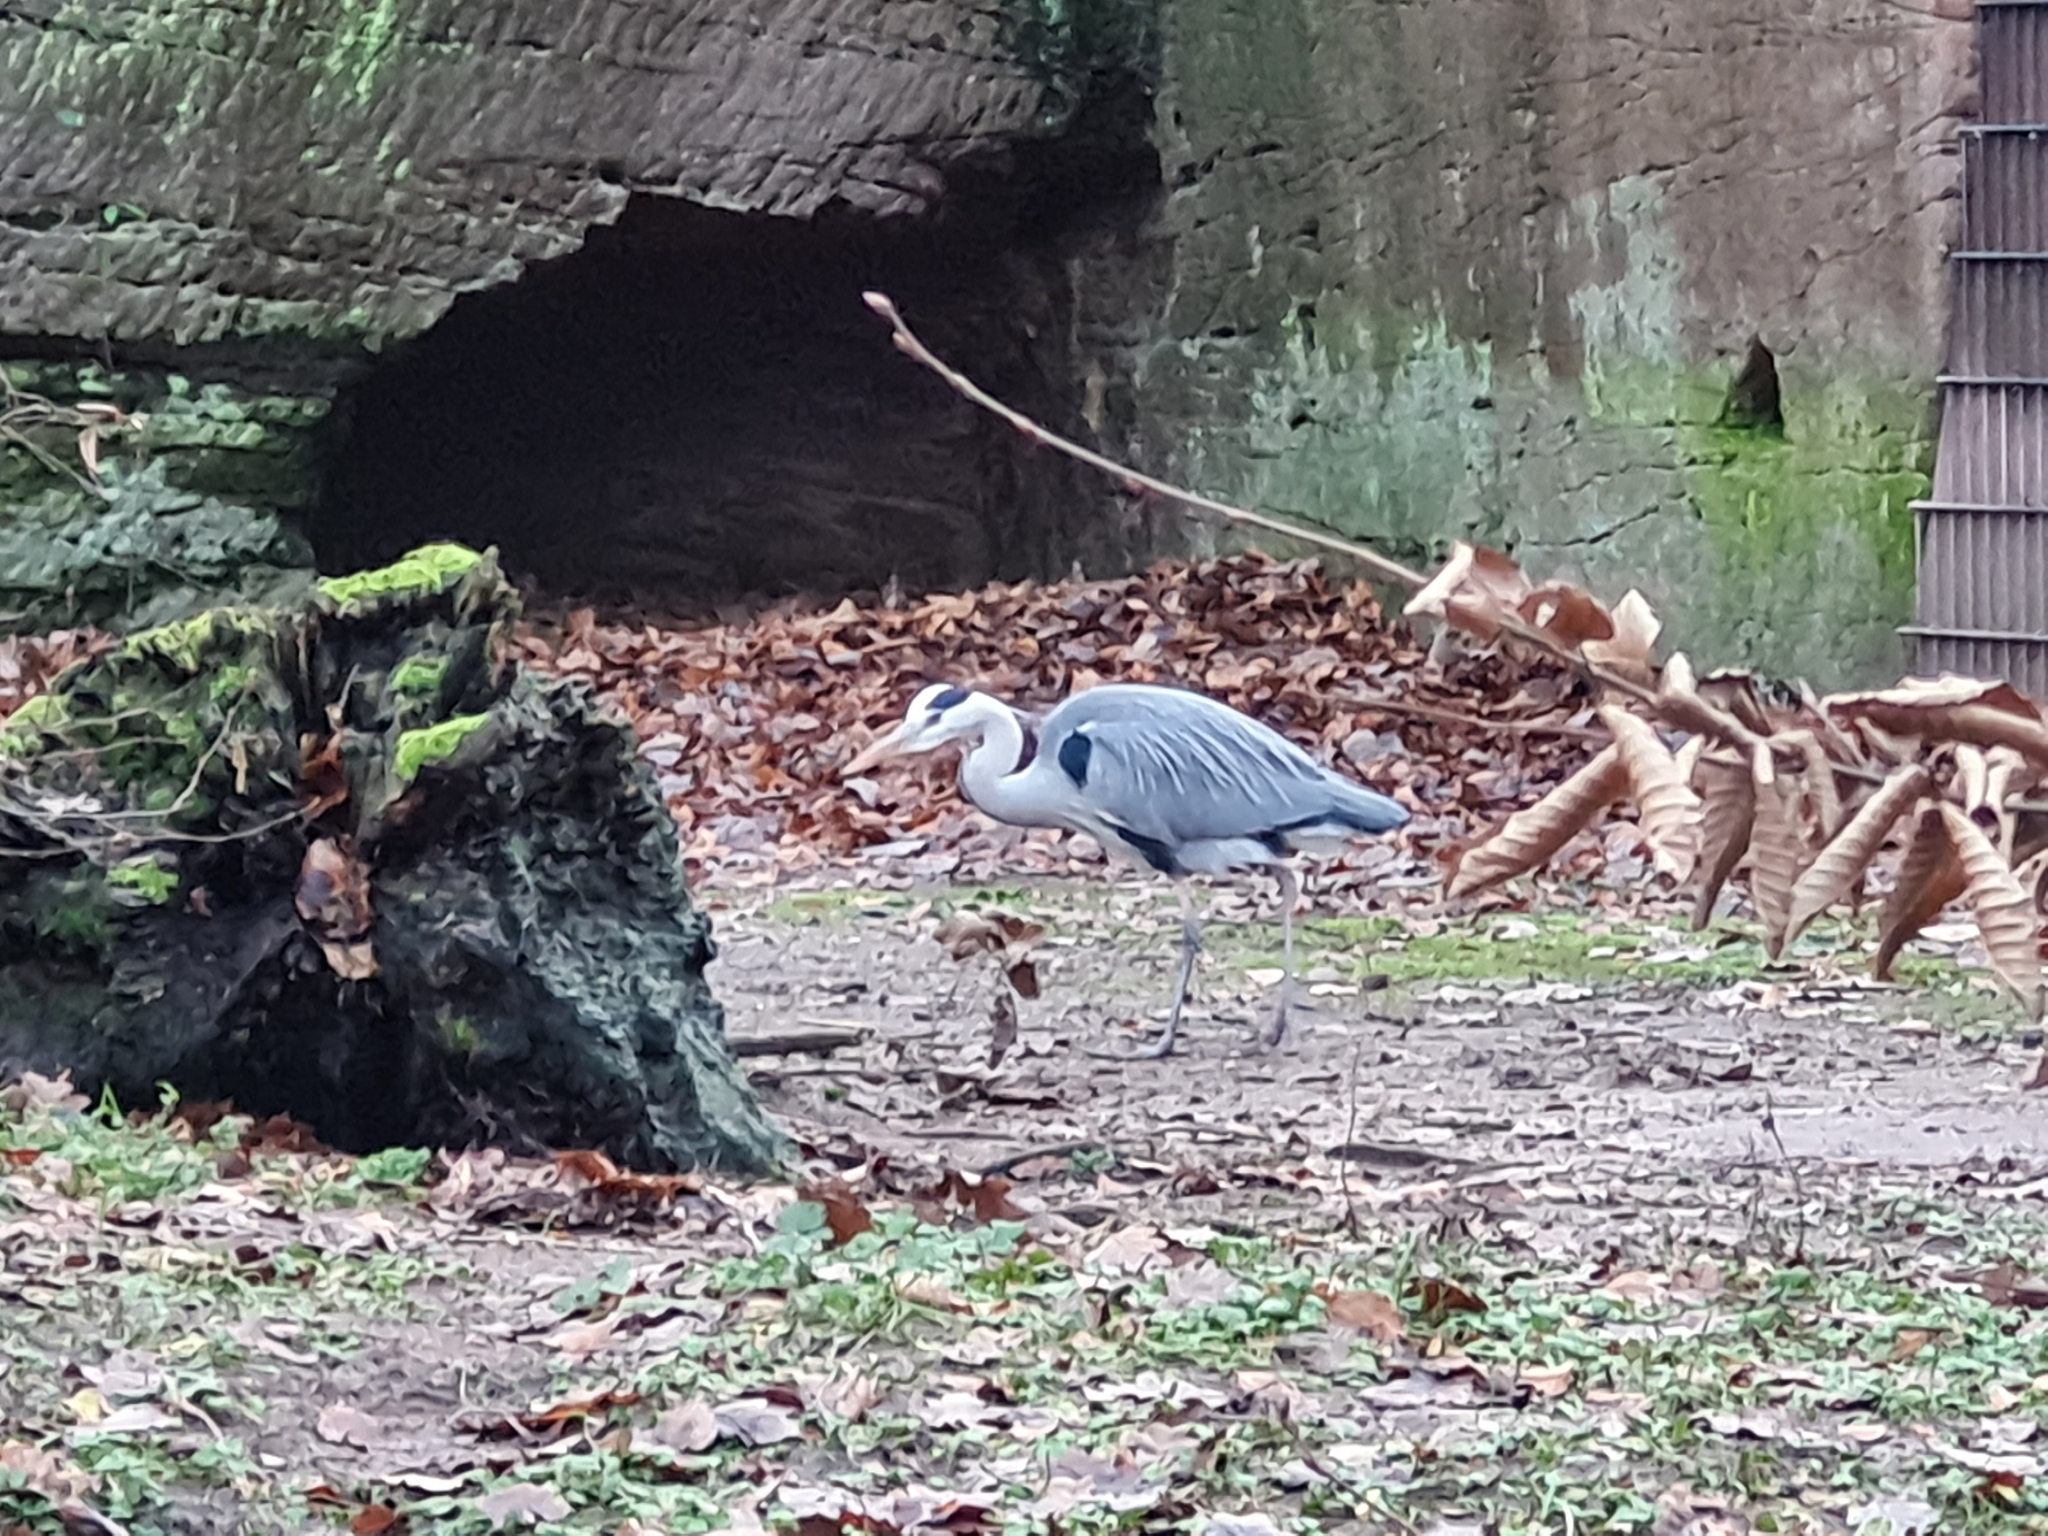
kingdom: Animalia
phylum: Chordata
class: Aves
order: Pelecaniformes
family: Ardeidae
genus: Ardea
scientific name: Ardea cinerea
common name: Grey heron
